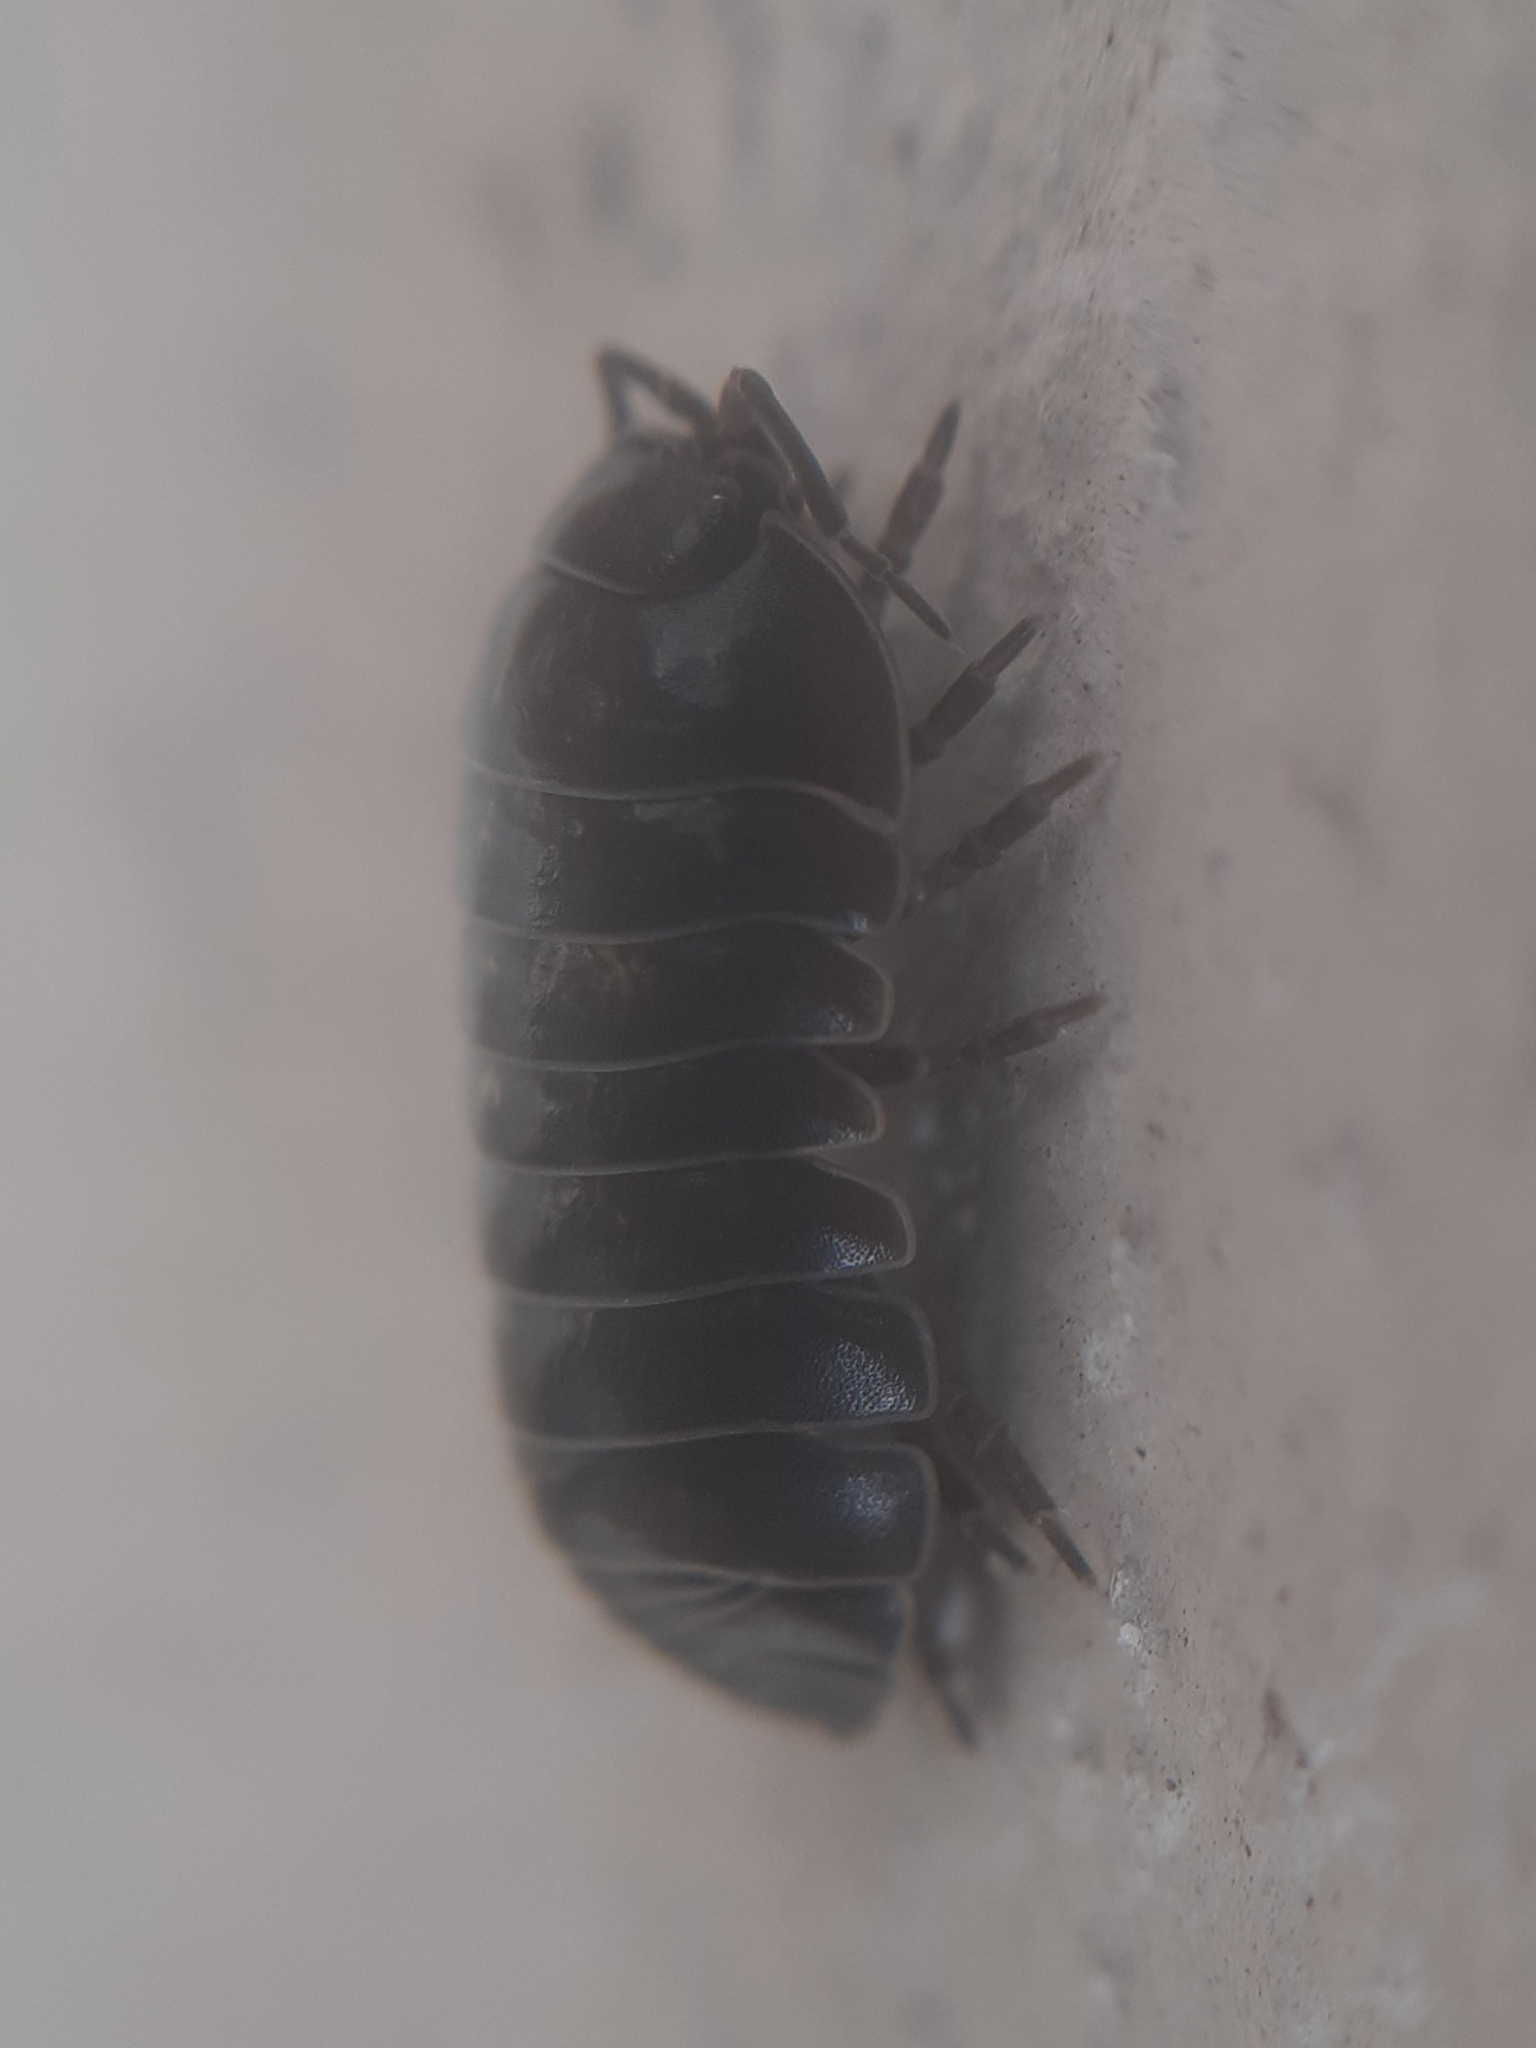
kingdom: Animalia
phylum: Arthropoda
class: Malacostraca
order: Isopoda
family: Armadillidiidae
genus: Armadillidium
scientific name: Armadillidium vulgare
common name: Common pill woodlouse
